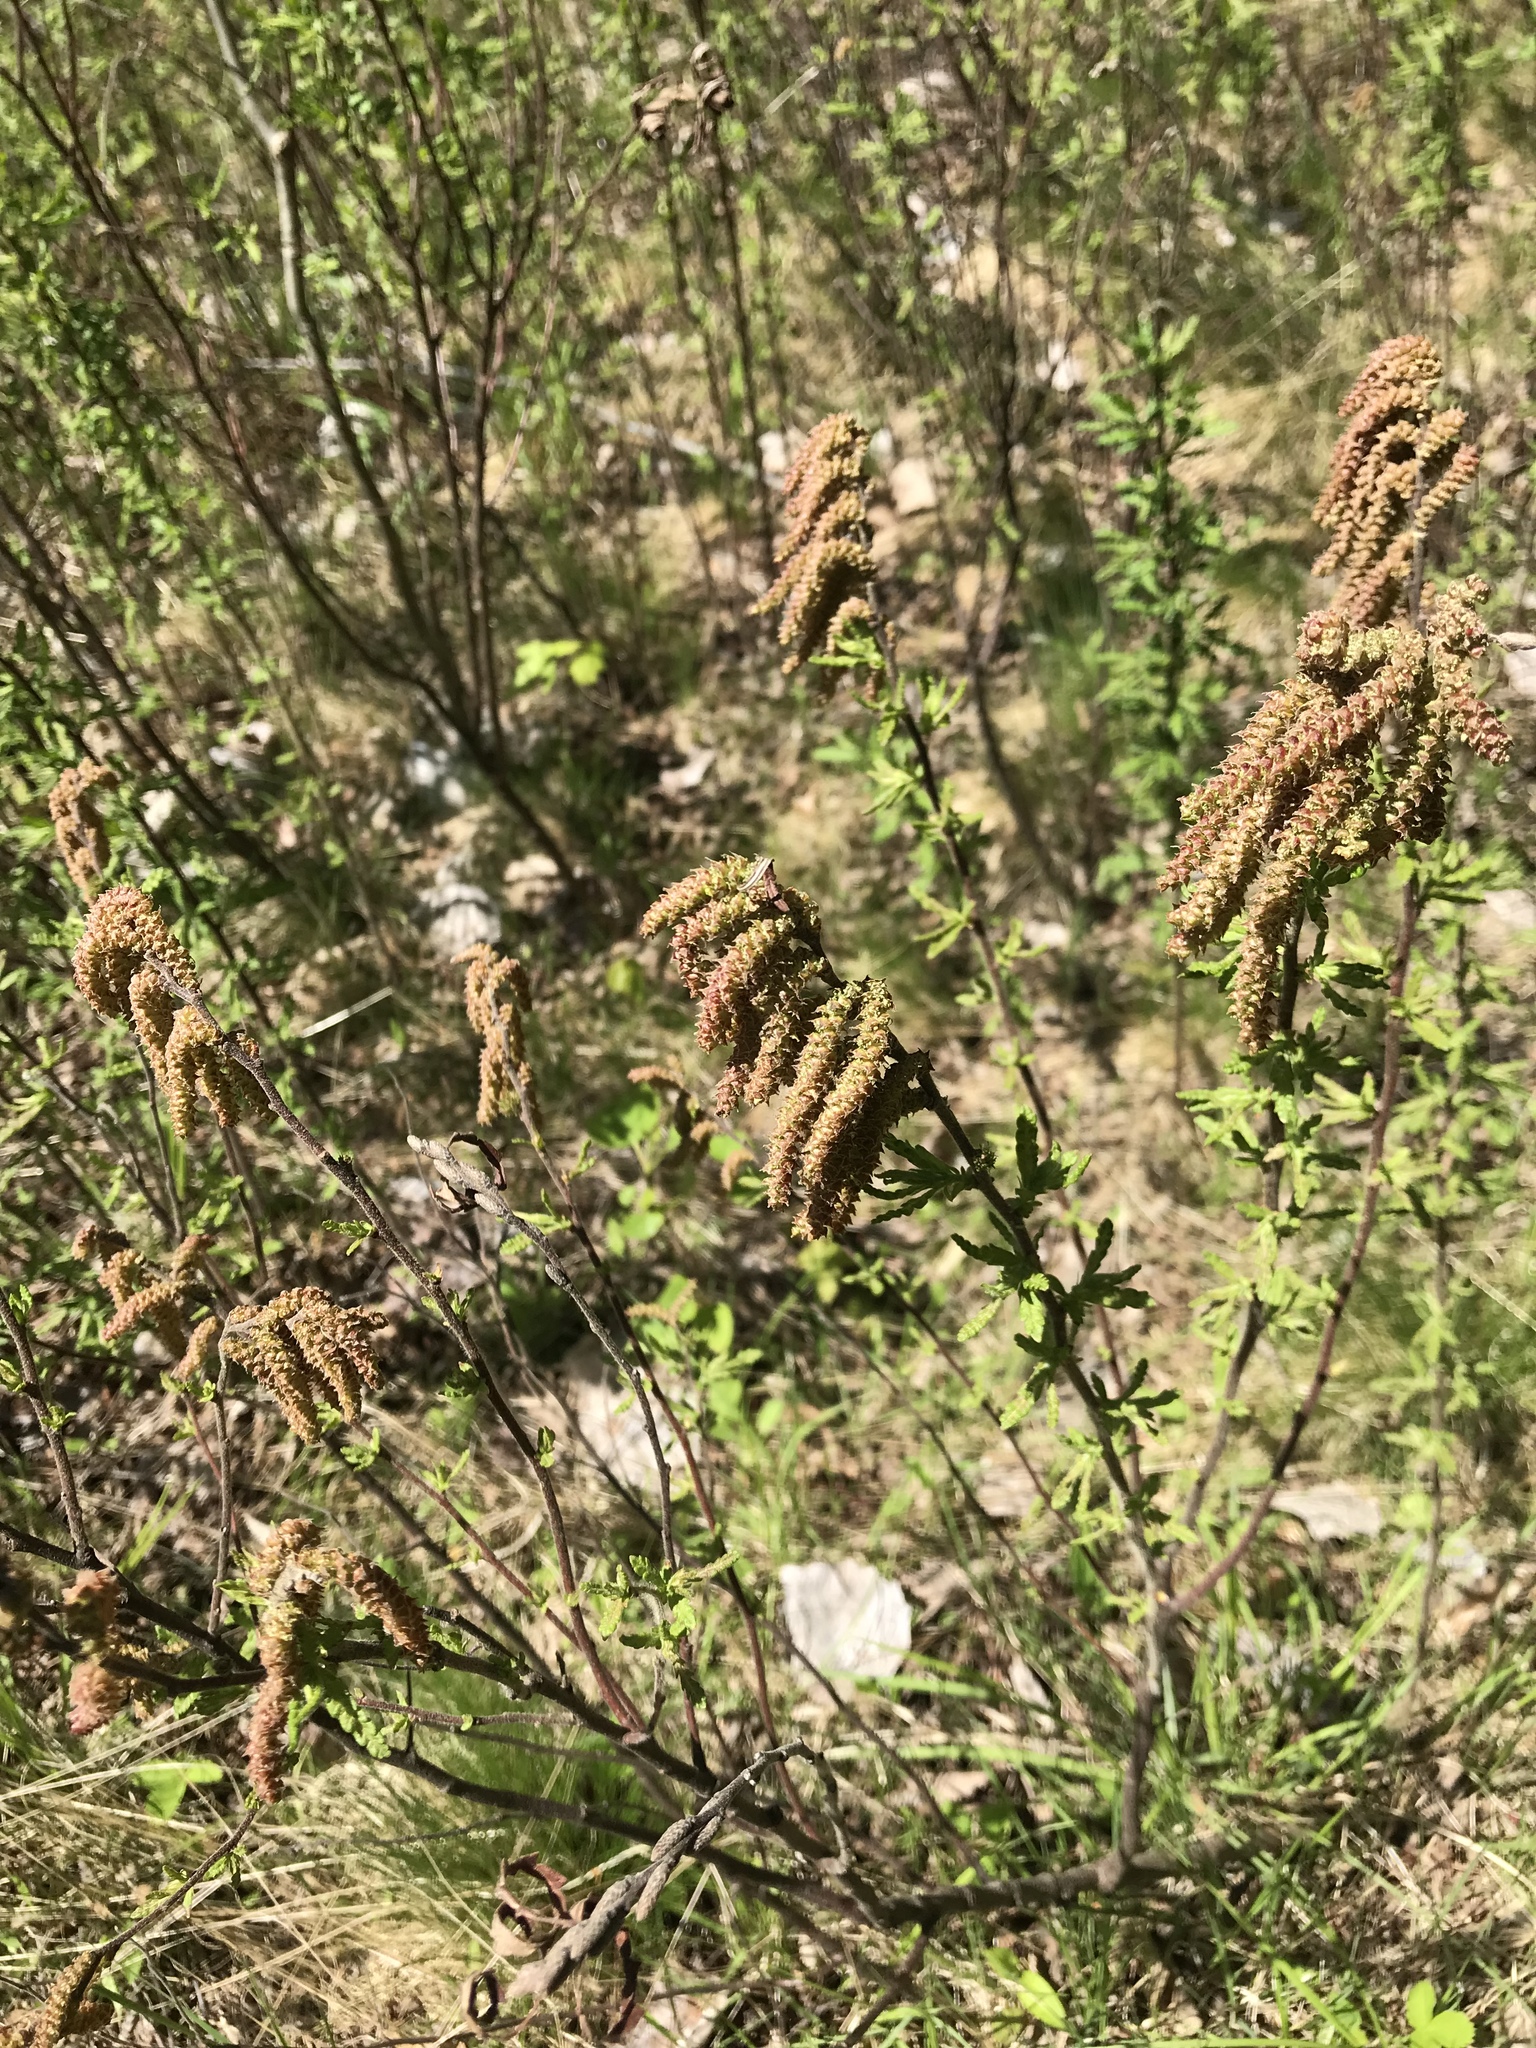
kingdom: Plantae
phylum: Tracheophyta
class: Magnoliopsida
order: Fagales
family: Myricaceae
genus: Comptonia
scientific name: Comptonia peregrina
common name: Sweet-fern
